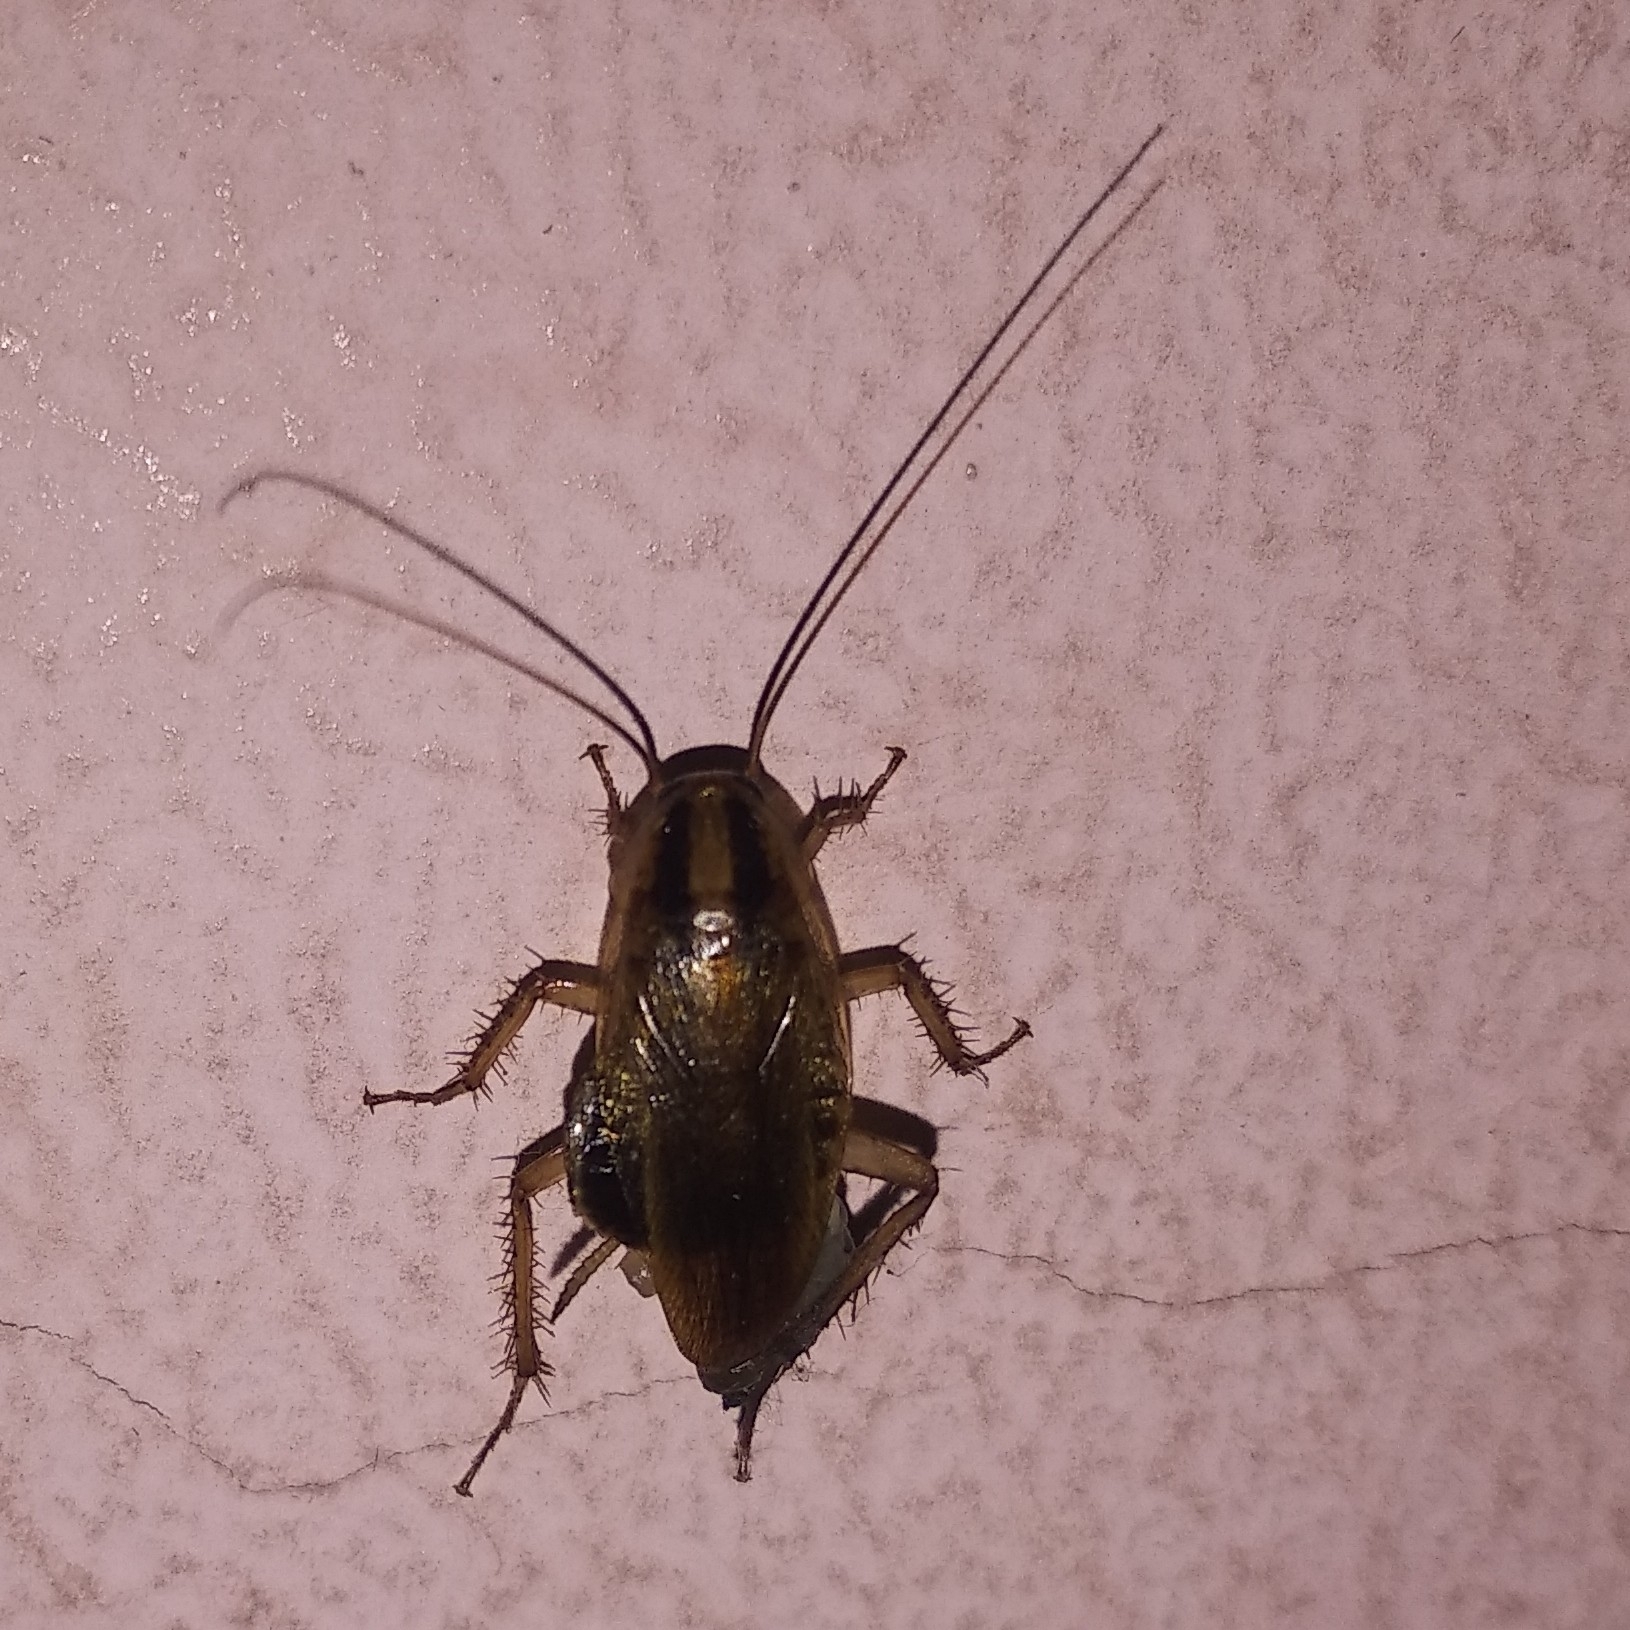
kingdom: Animalia
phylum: Arthropoda
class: Insecta
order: Blattodea
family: Ectobiidae
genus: Blattella
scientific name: Blattella germanica
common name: German cockroach
